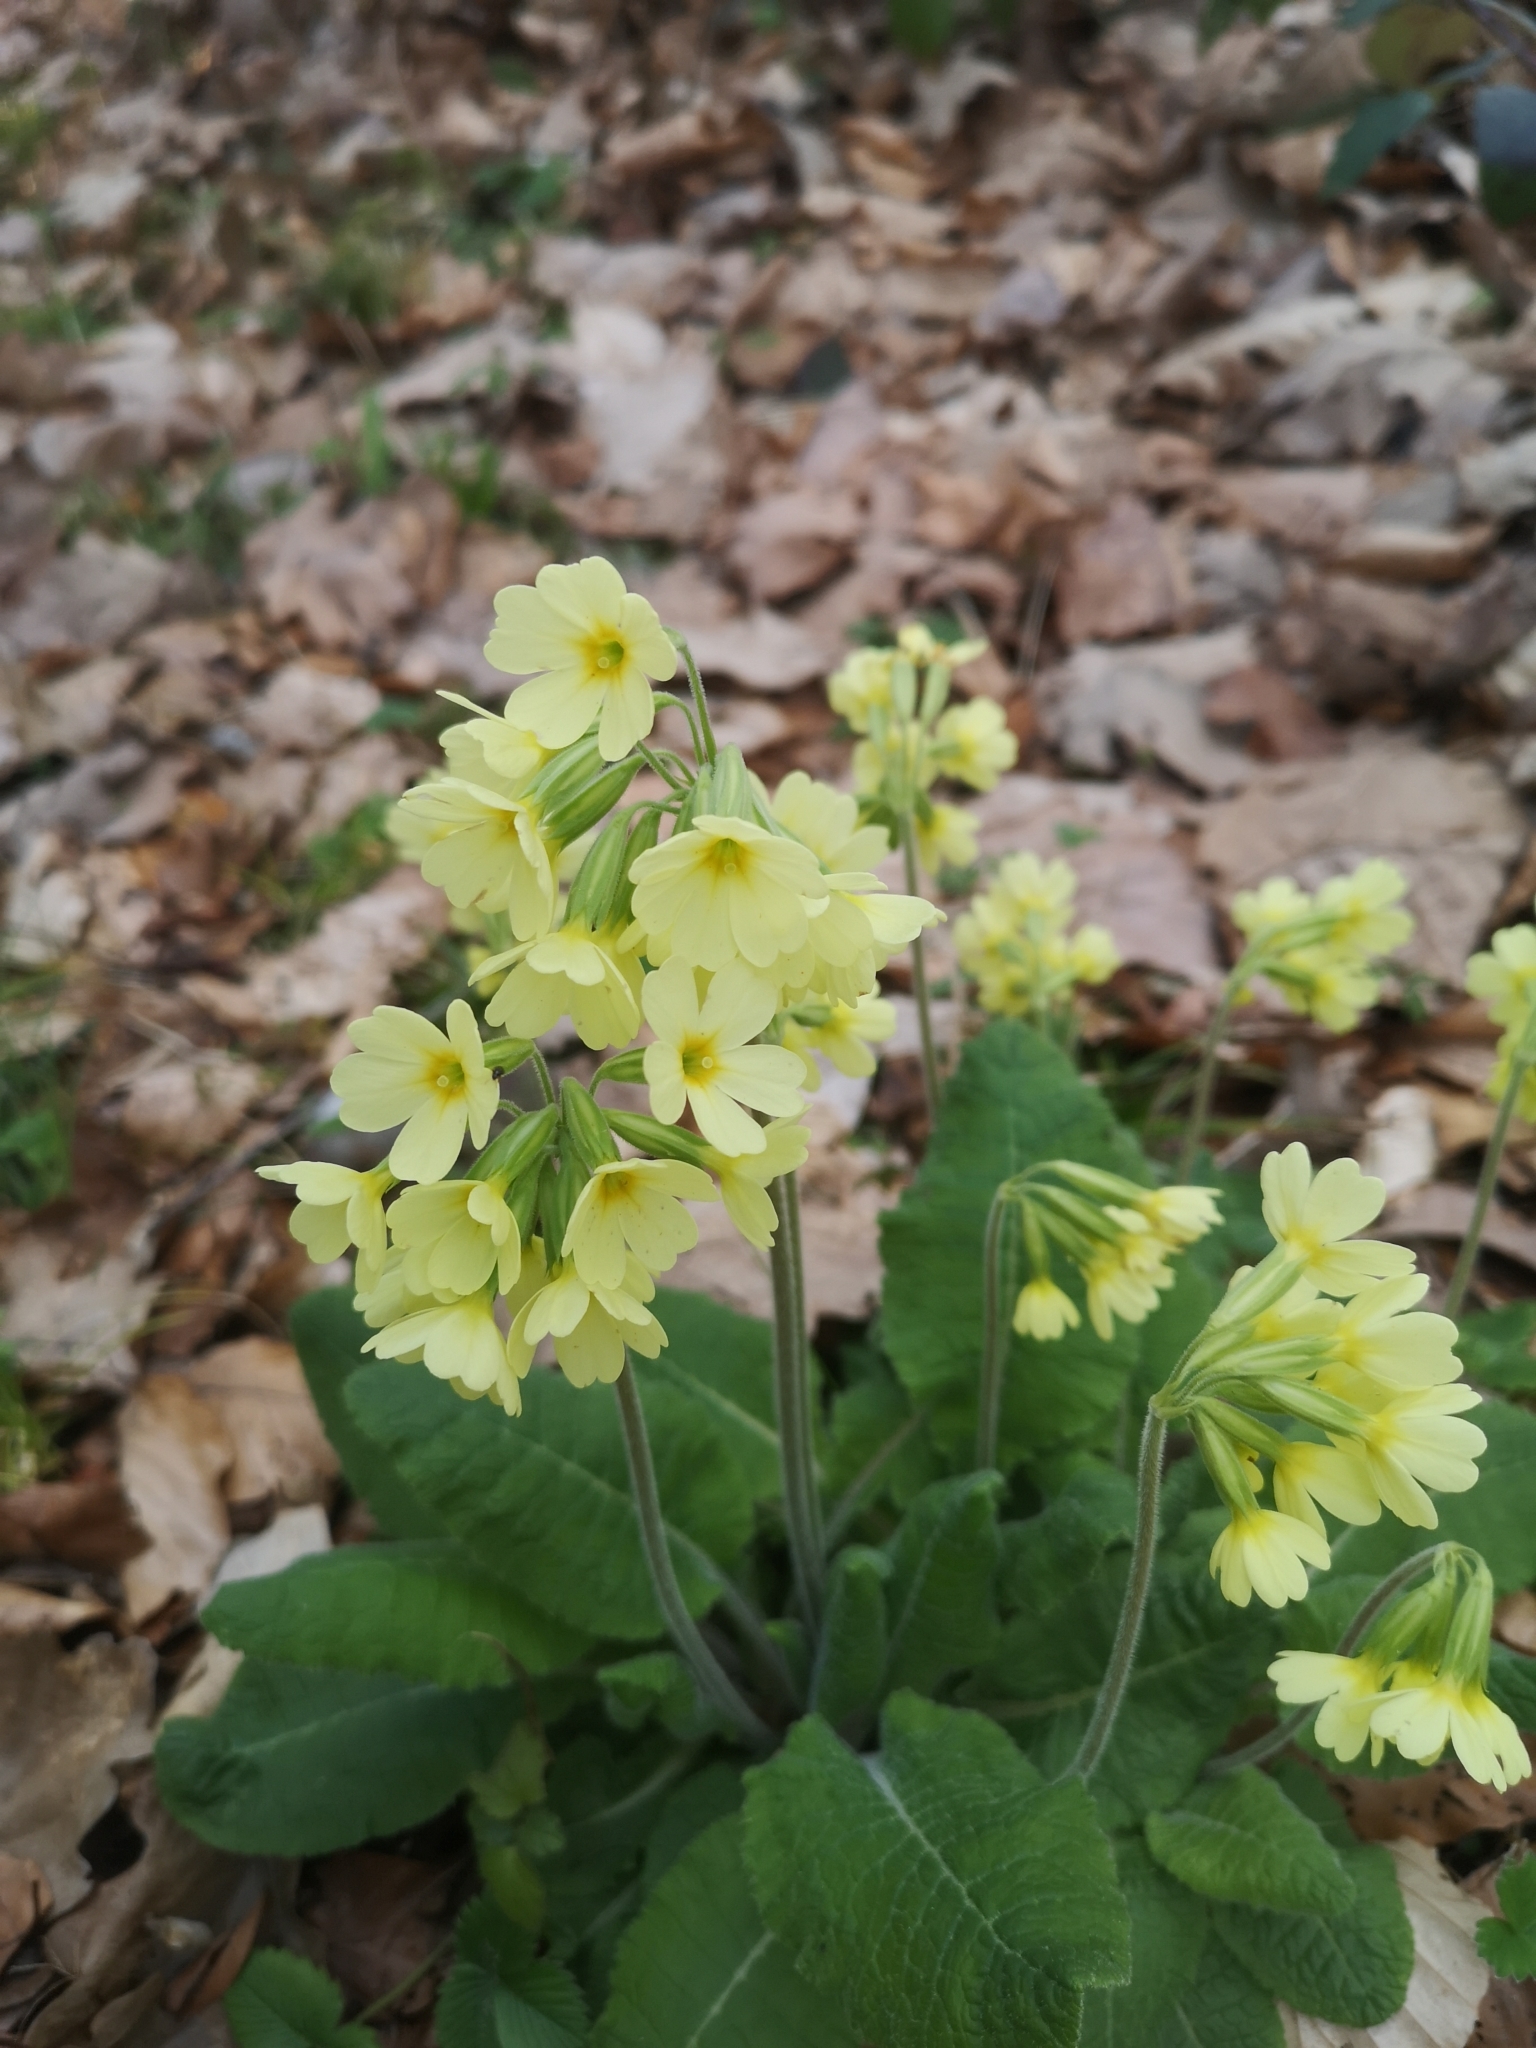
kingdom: Plantae
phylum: Tracheophyta
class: Magnoliopsida
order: Ericales
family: Primulaceae
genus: Primula
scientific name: Primula elatior
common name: Oxlip
